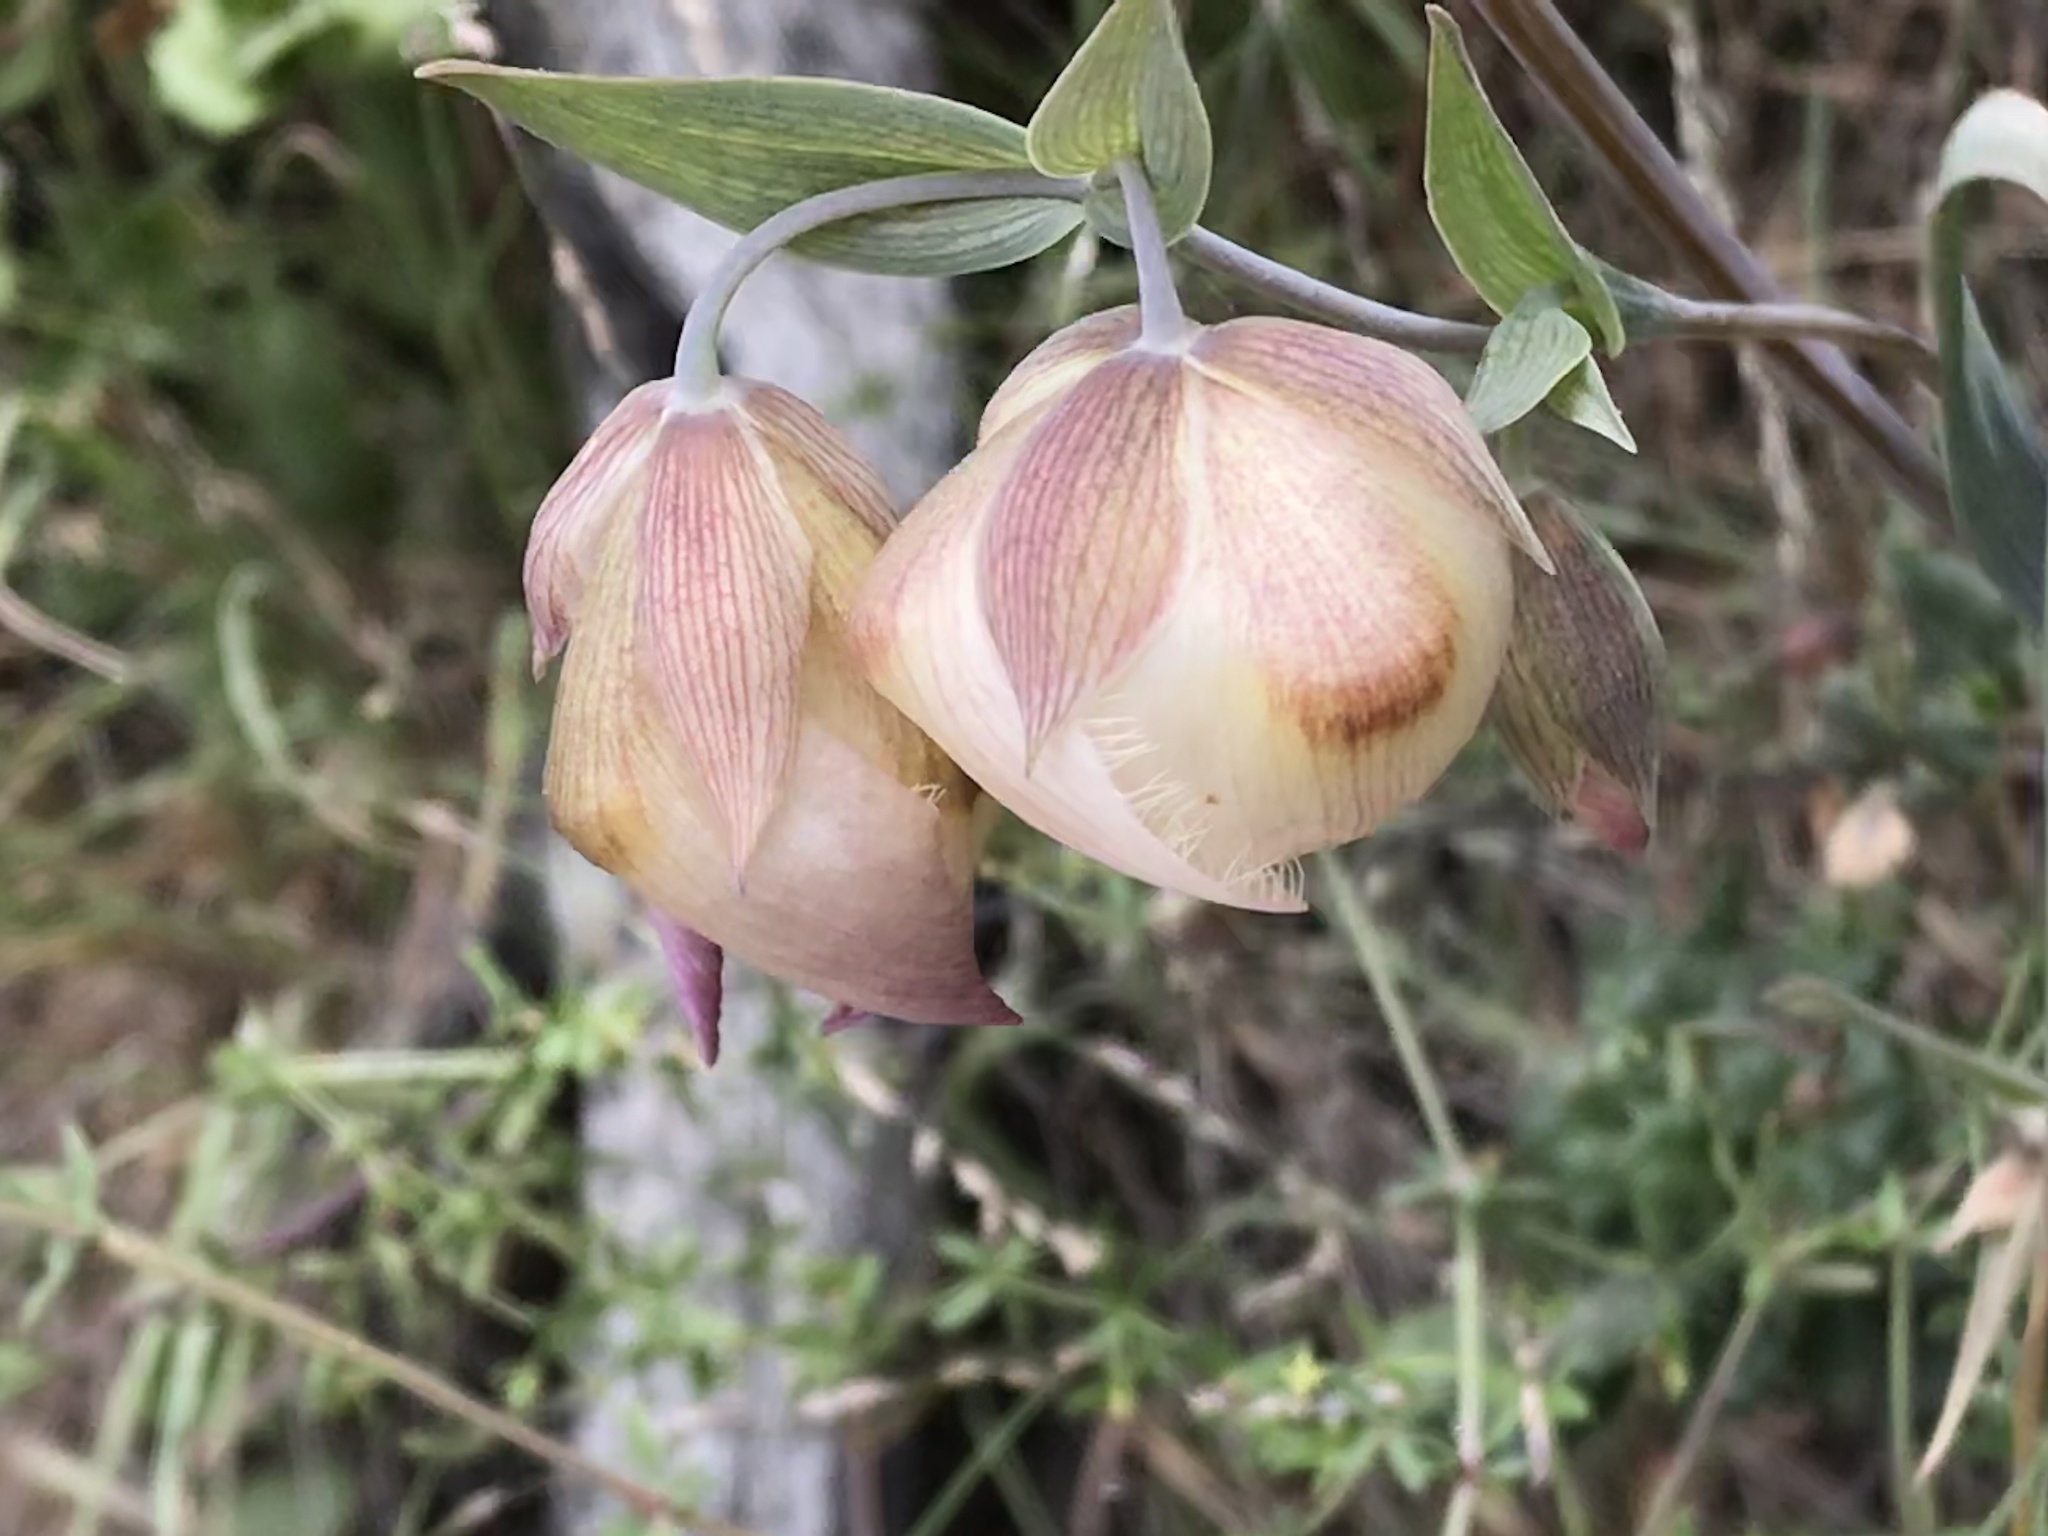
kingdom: Plantae
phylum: Tracheophyta
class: Liliopsida
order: Liliales
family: Liliaceae
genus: Calochortus
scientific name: Calochortus albus
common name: Fairy-lantern
